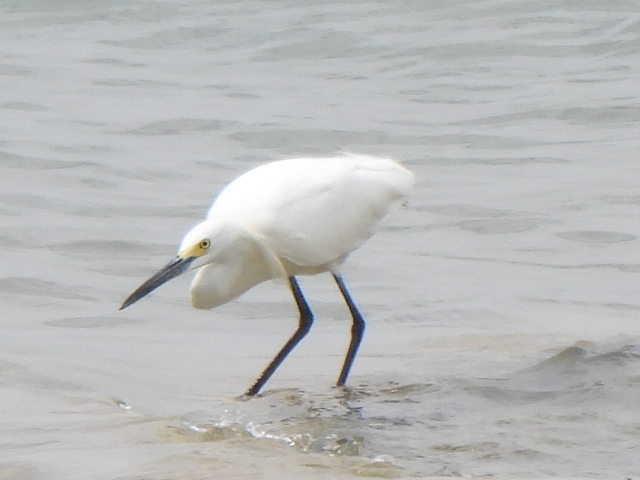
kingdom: Animalia
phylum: Chordata
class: Aves
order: Pelecaniformes
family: Ardeidae
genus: Egretta
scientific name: Egretta thula
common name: Snowy egret
